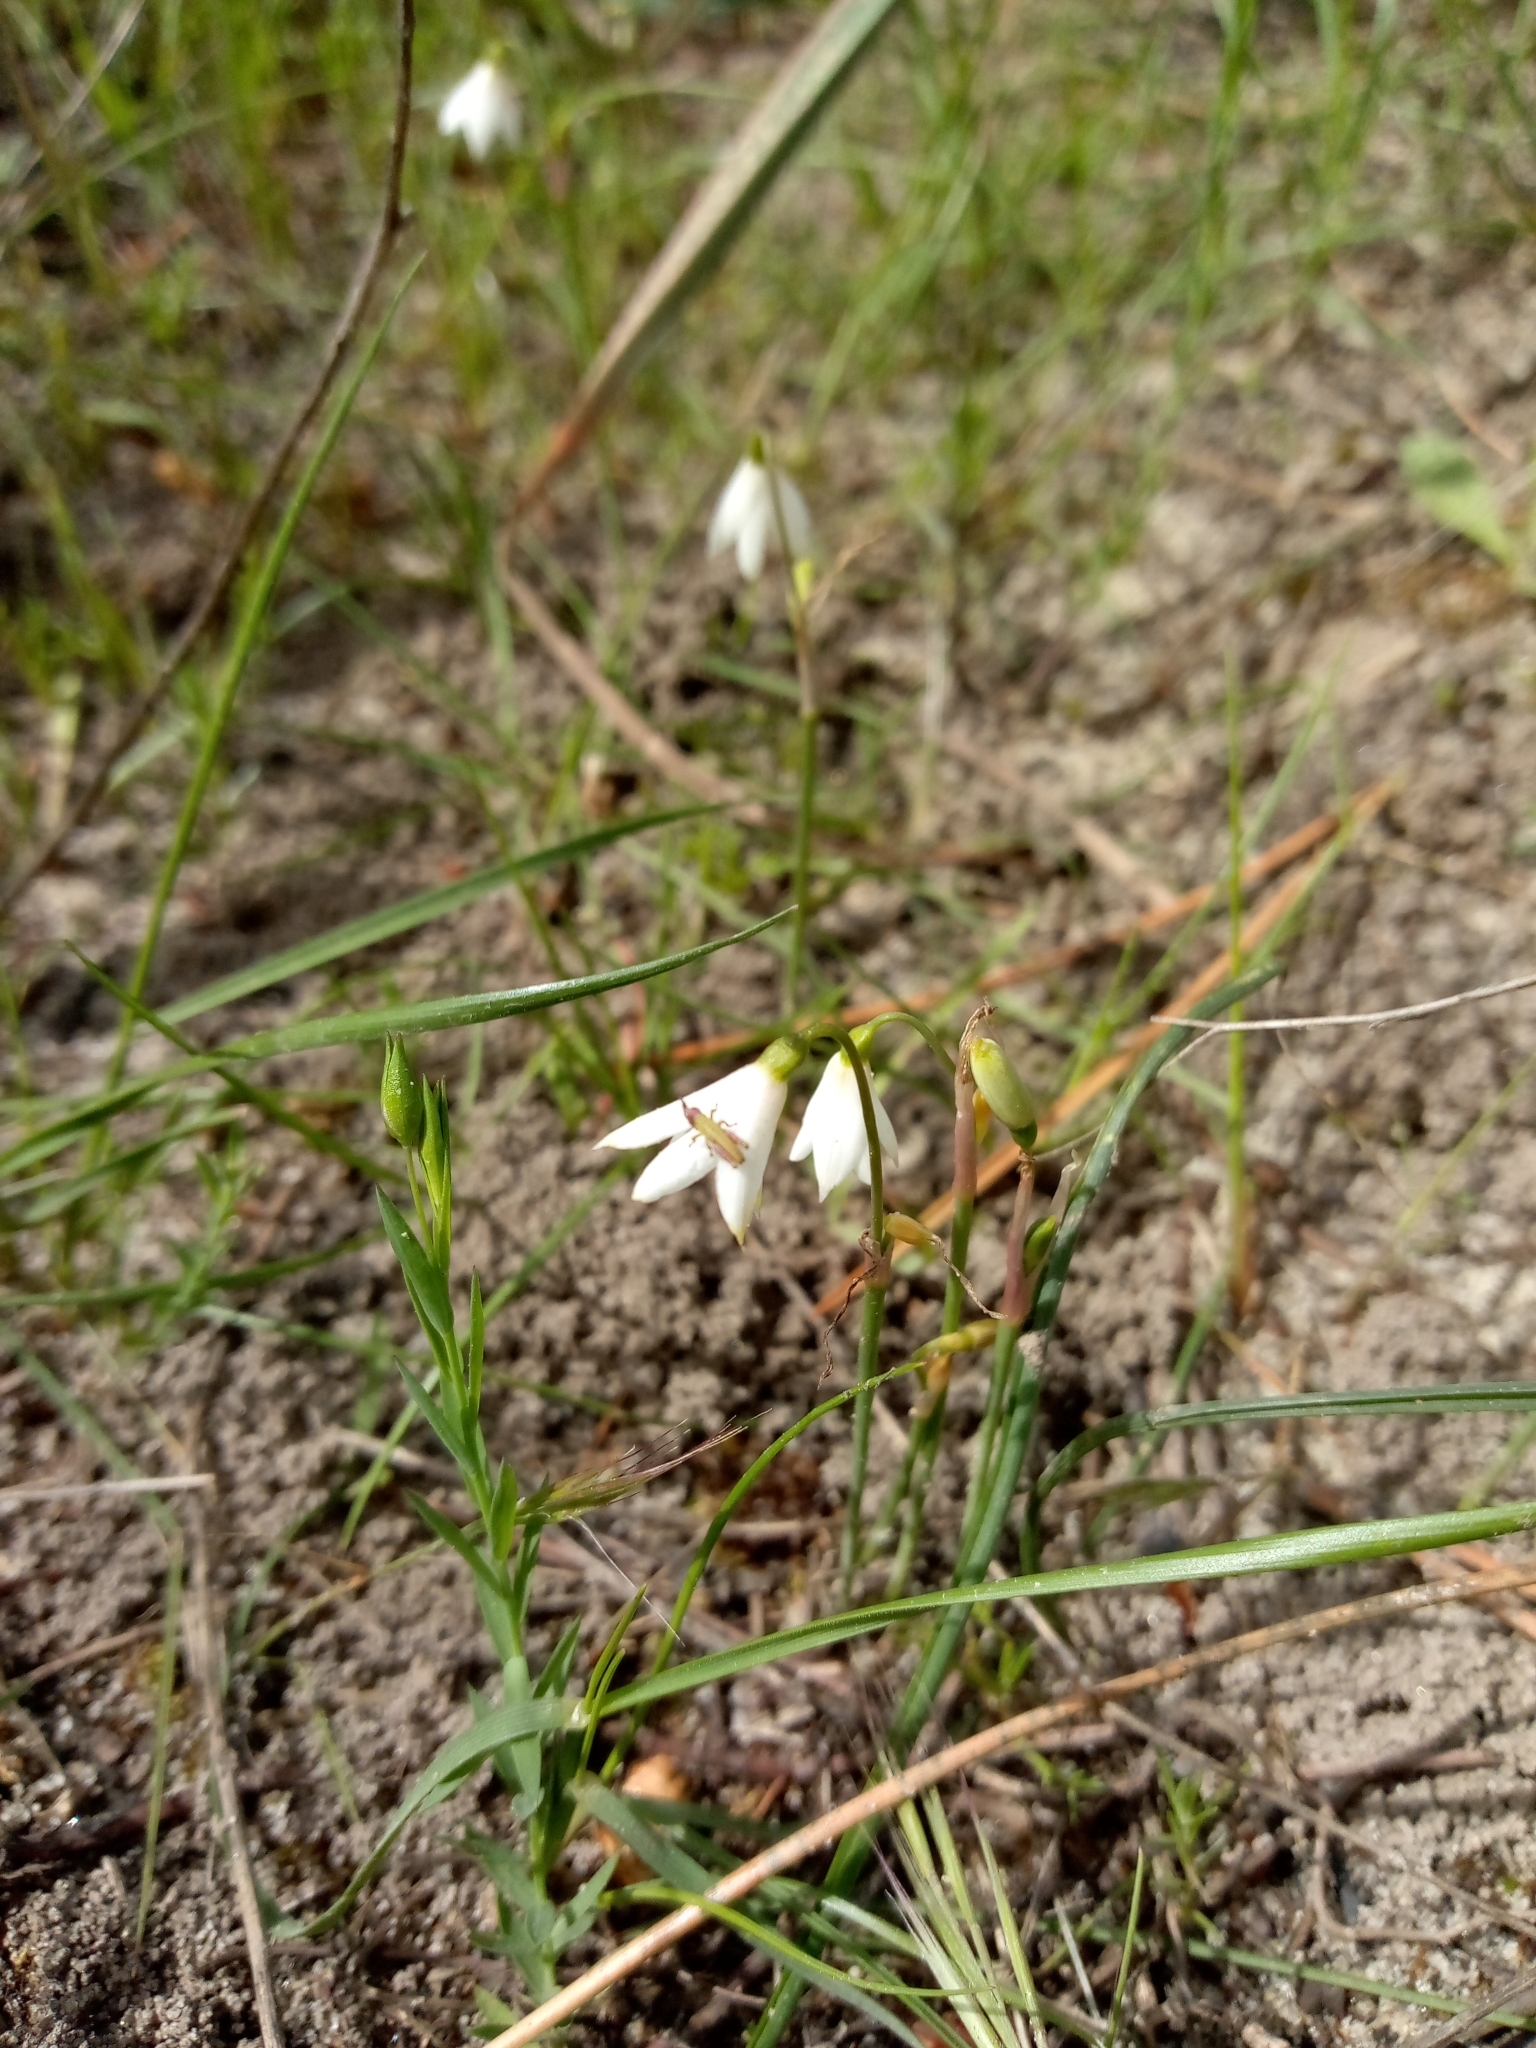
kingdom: Plantae
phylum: Tracheophyta
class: Liliopsida
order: Asparagales
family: Amaryllidaceae
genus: Acis
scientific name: Acis trichophylla
